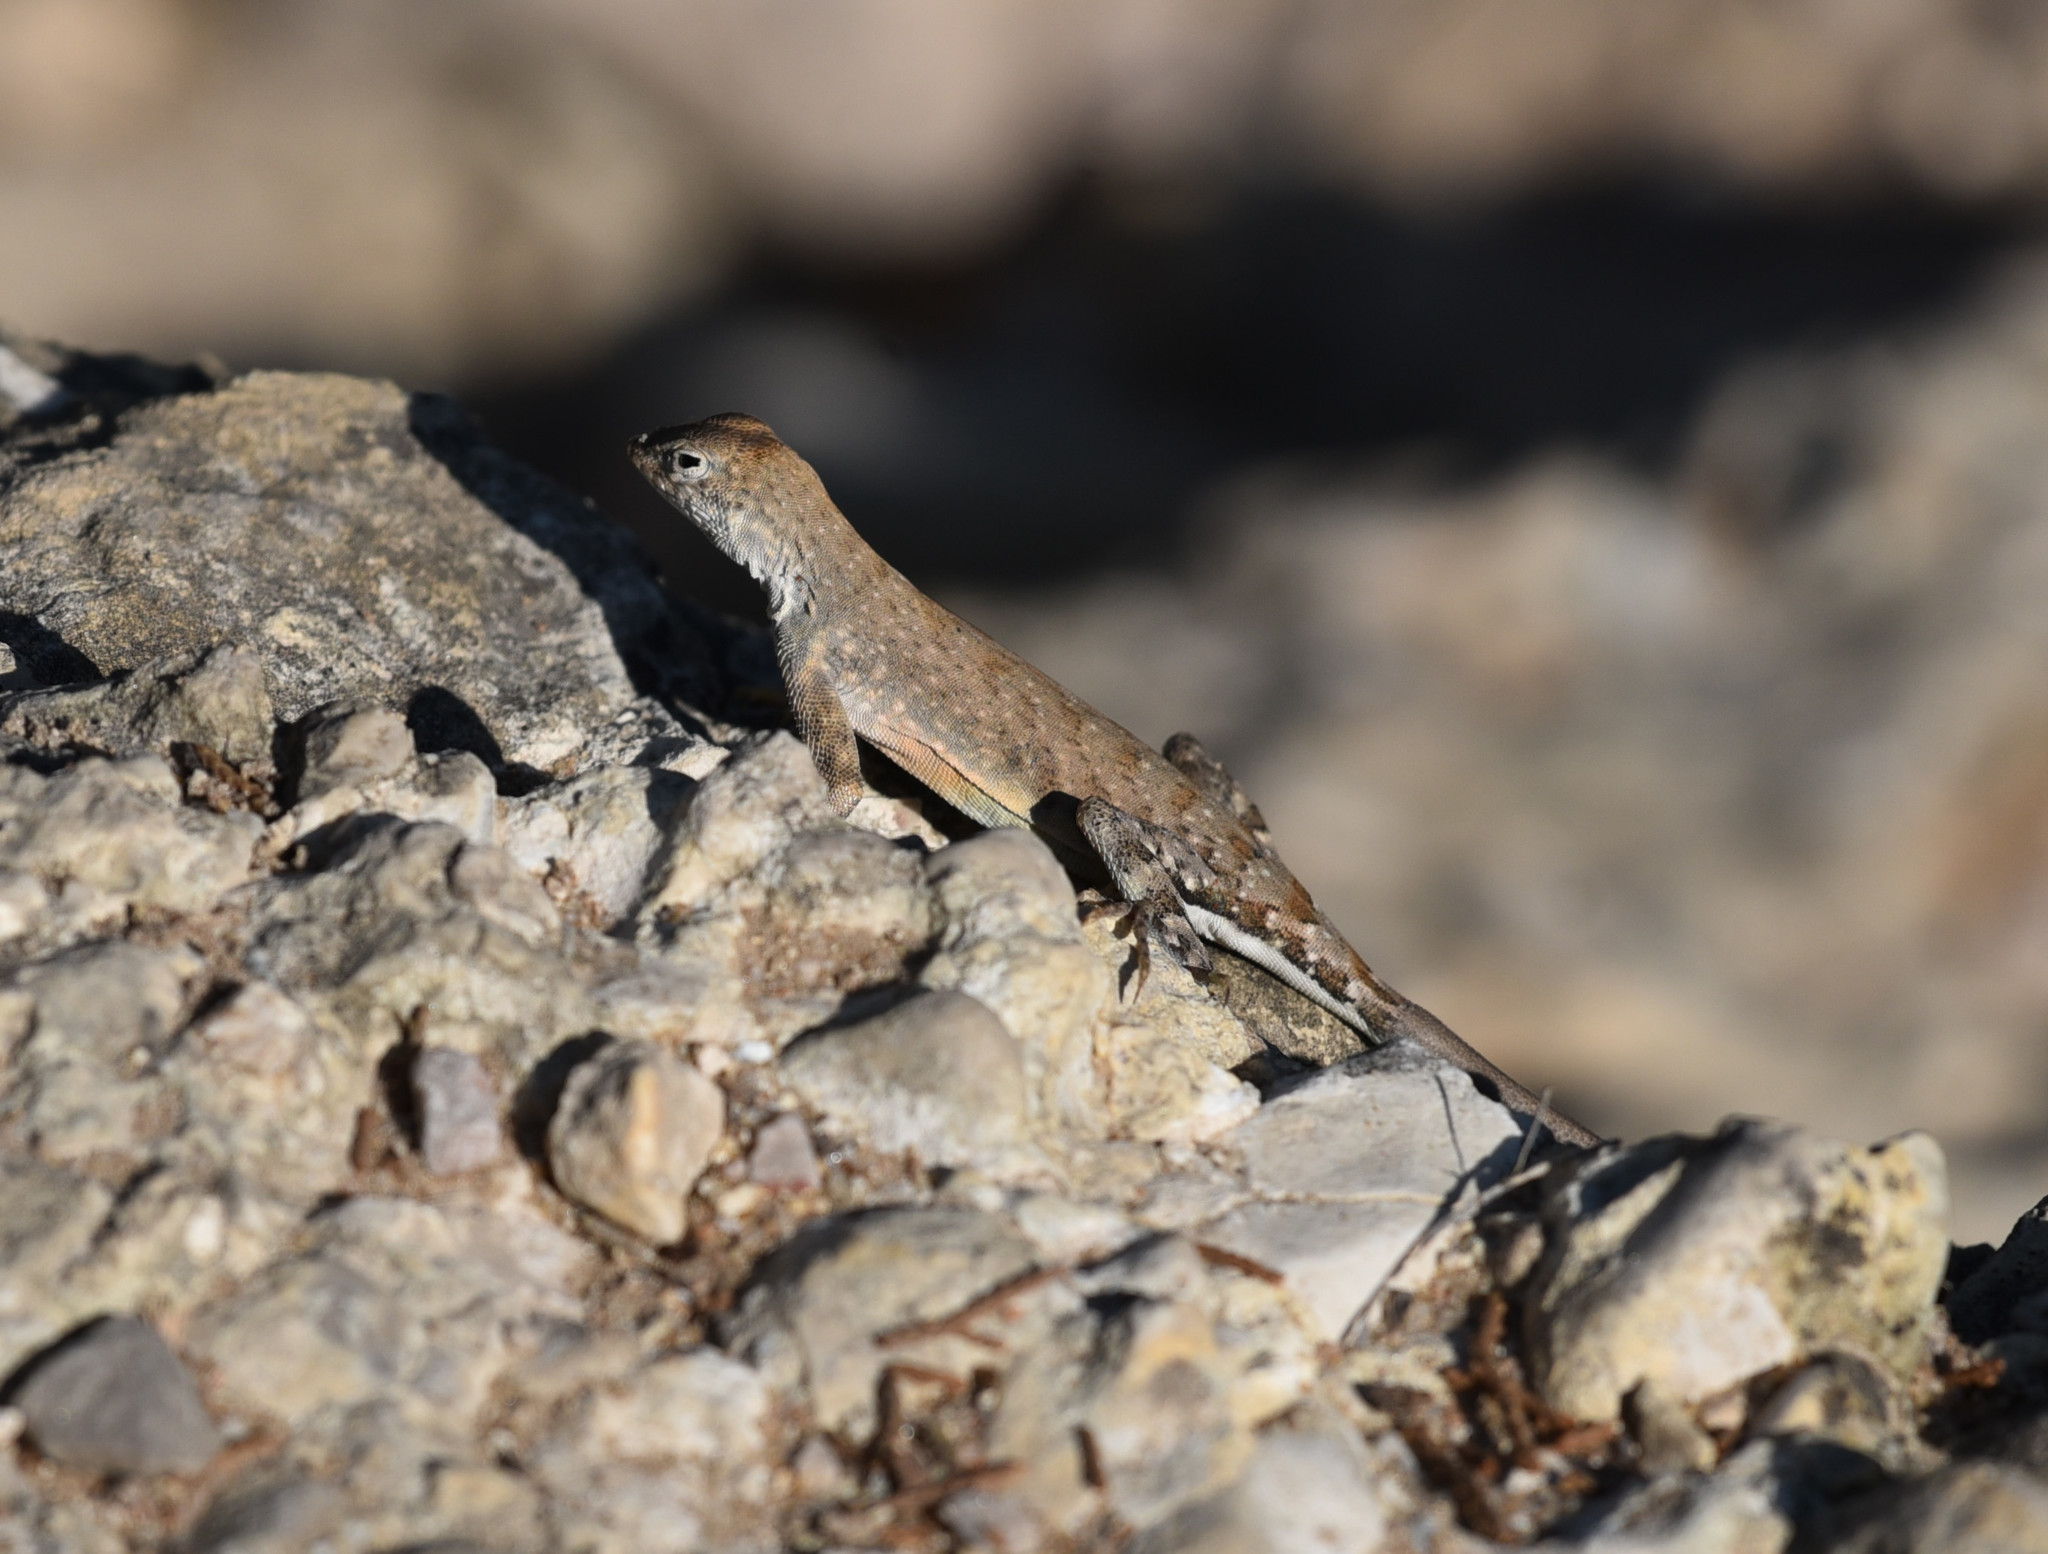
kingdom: Animalia
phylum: Chordata
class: Squamata
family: Phrynosomatidae
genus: Cophosaurus
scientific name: Cophosaurus texanus
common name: Greater earless lizard
